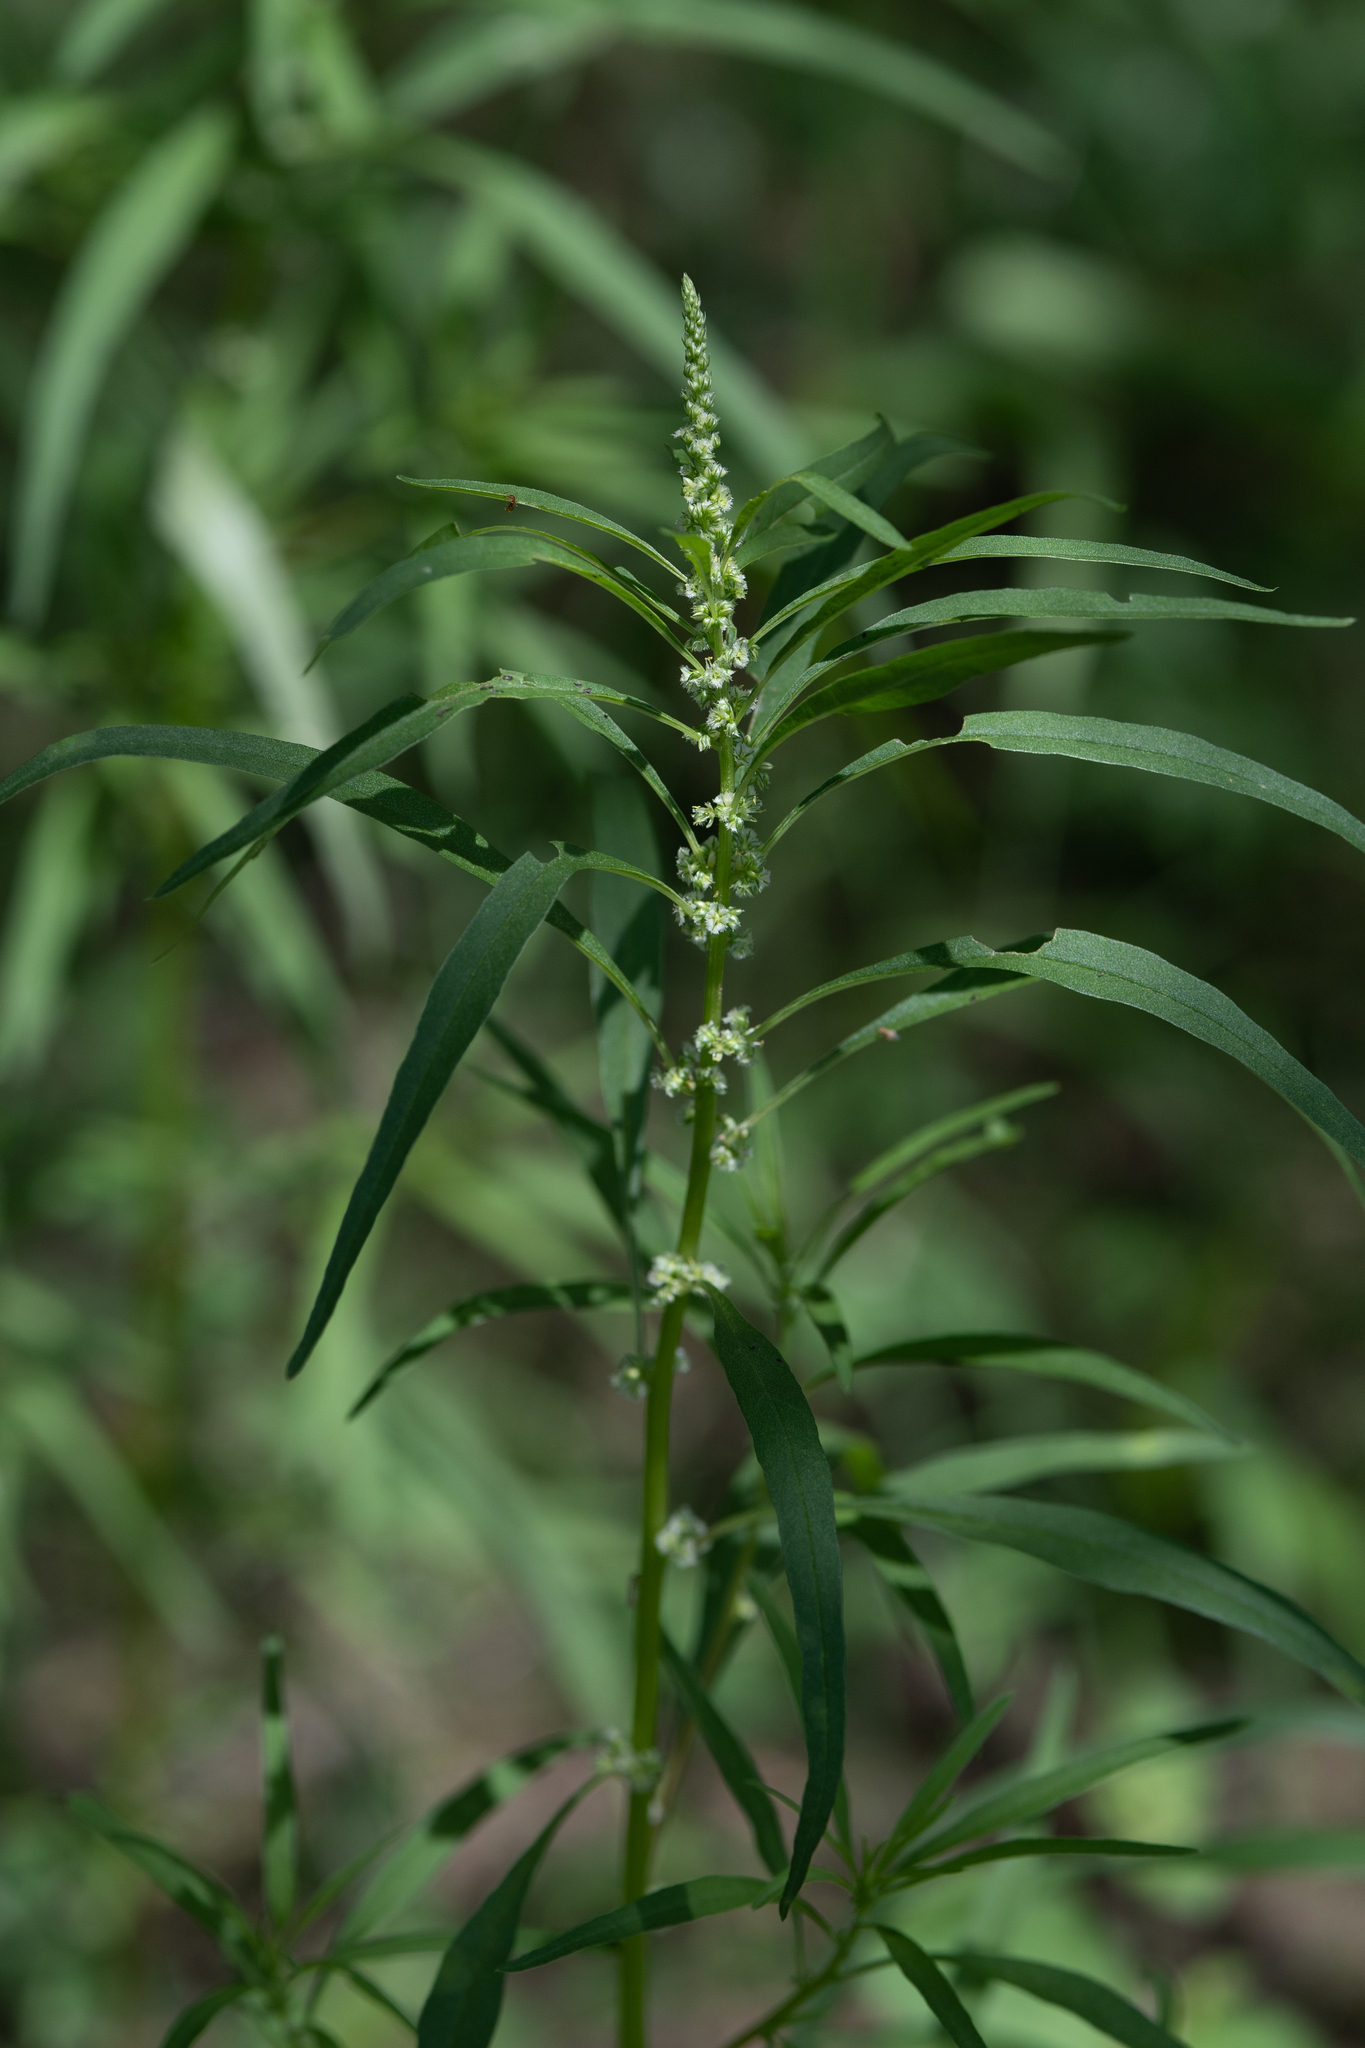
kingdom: Plantae
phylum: Tracheophyta
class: Magnoliopsida
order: Caryophyllales
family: Amaranthaceae
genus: Amaranthus
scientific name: Amaranthus fimbriatus
